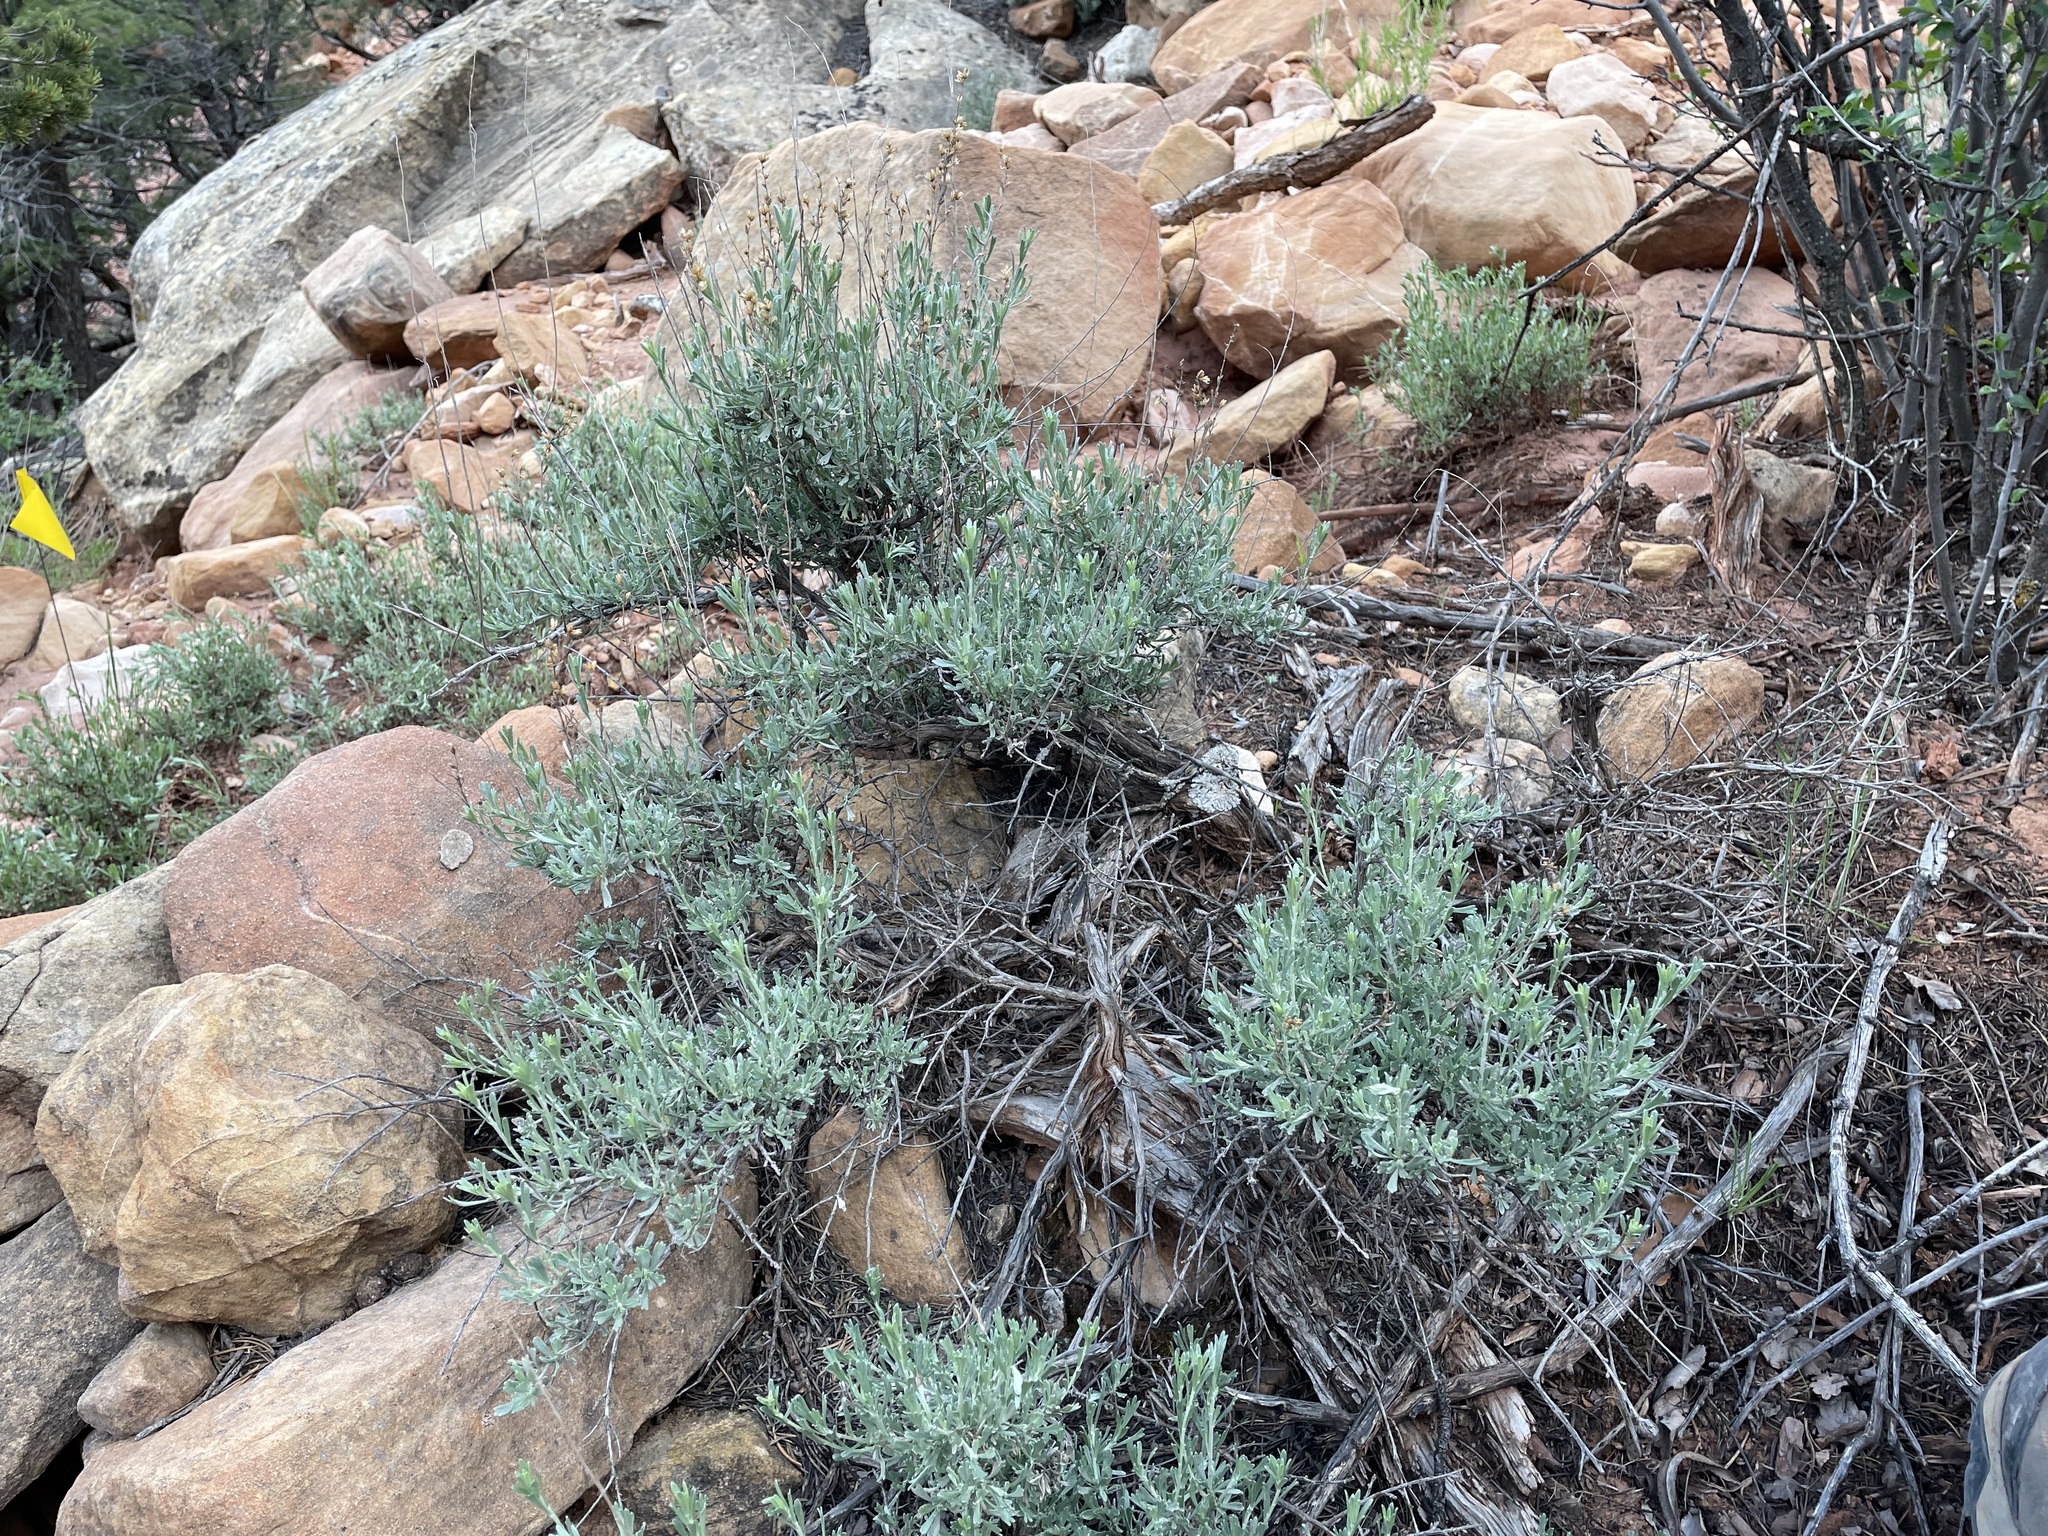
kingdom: Plantae
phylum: Tracheophyta
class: Magnoliopsida
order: Asterales
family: Asteraceae
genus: Artemisia
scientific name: Artemisia bigelovii
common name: Bigelow sagebrush
